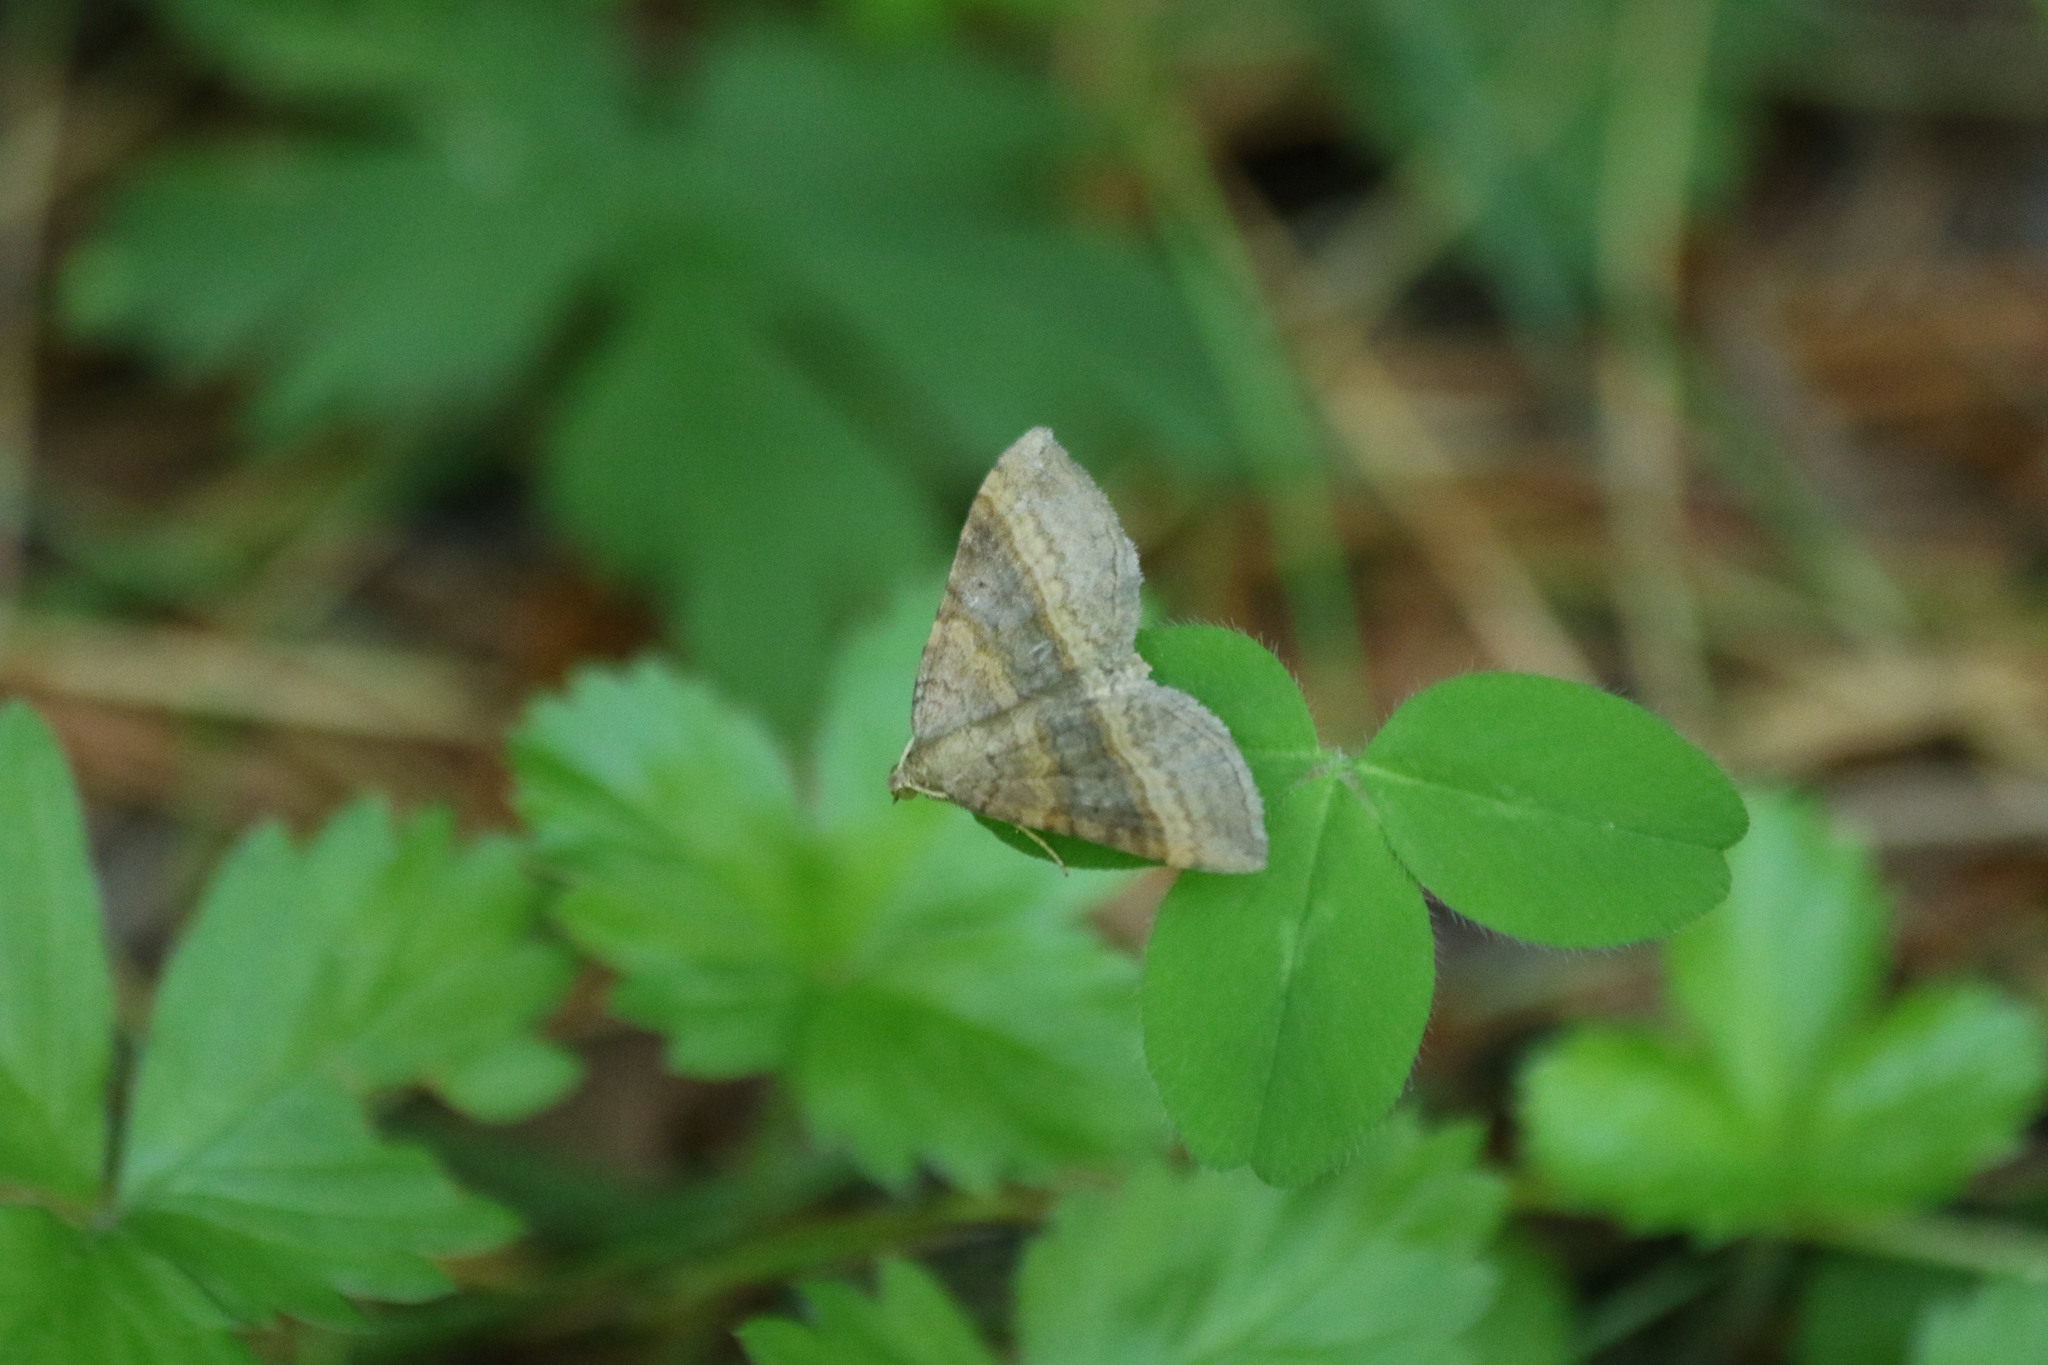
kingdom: Animalia
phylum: Arthropoda
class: Insecta
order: Lepidoptera
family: Geometridae
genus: Scotopteryx
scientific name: Scotopteryx chenopodiata
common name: Shaded broad-bar
